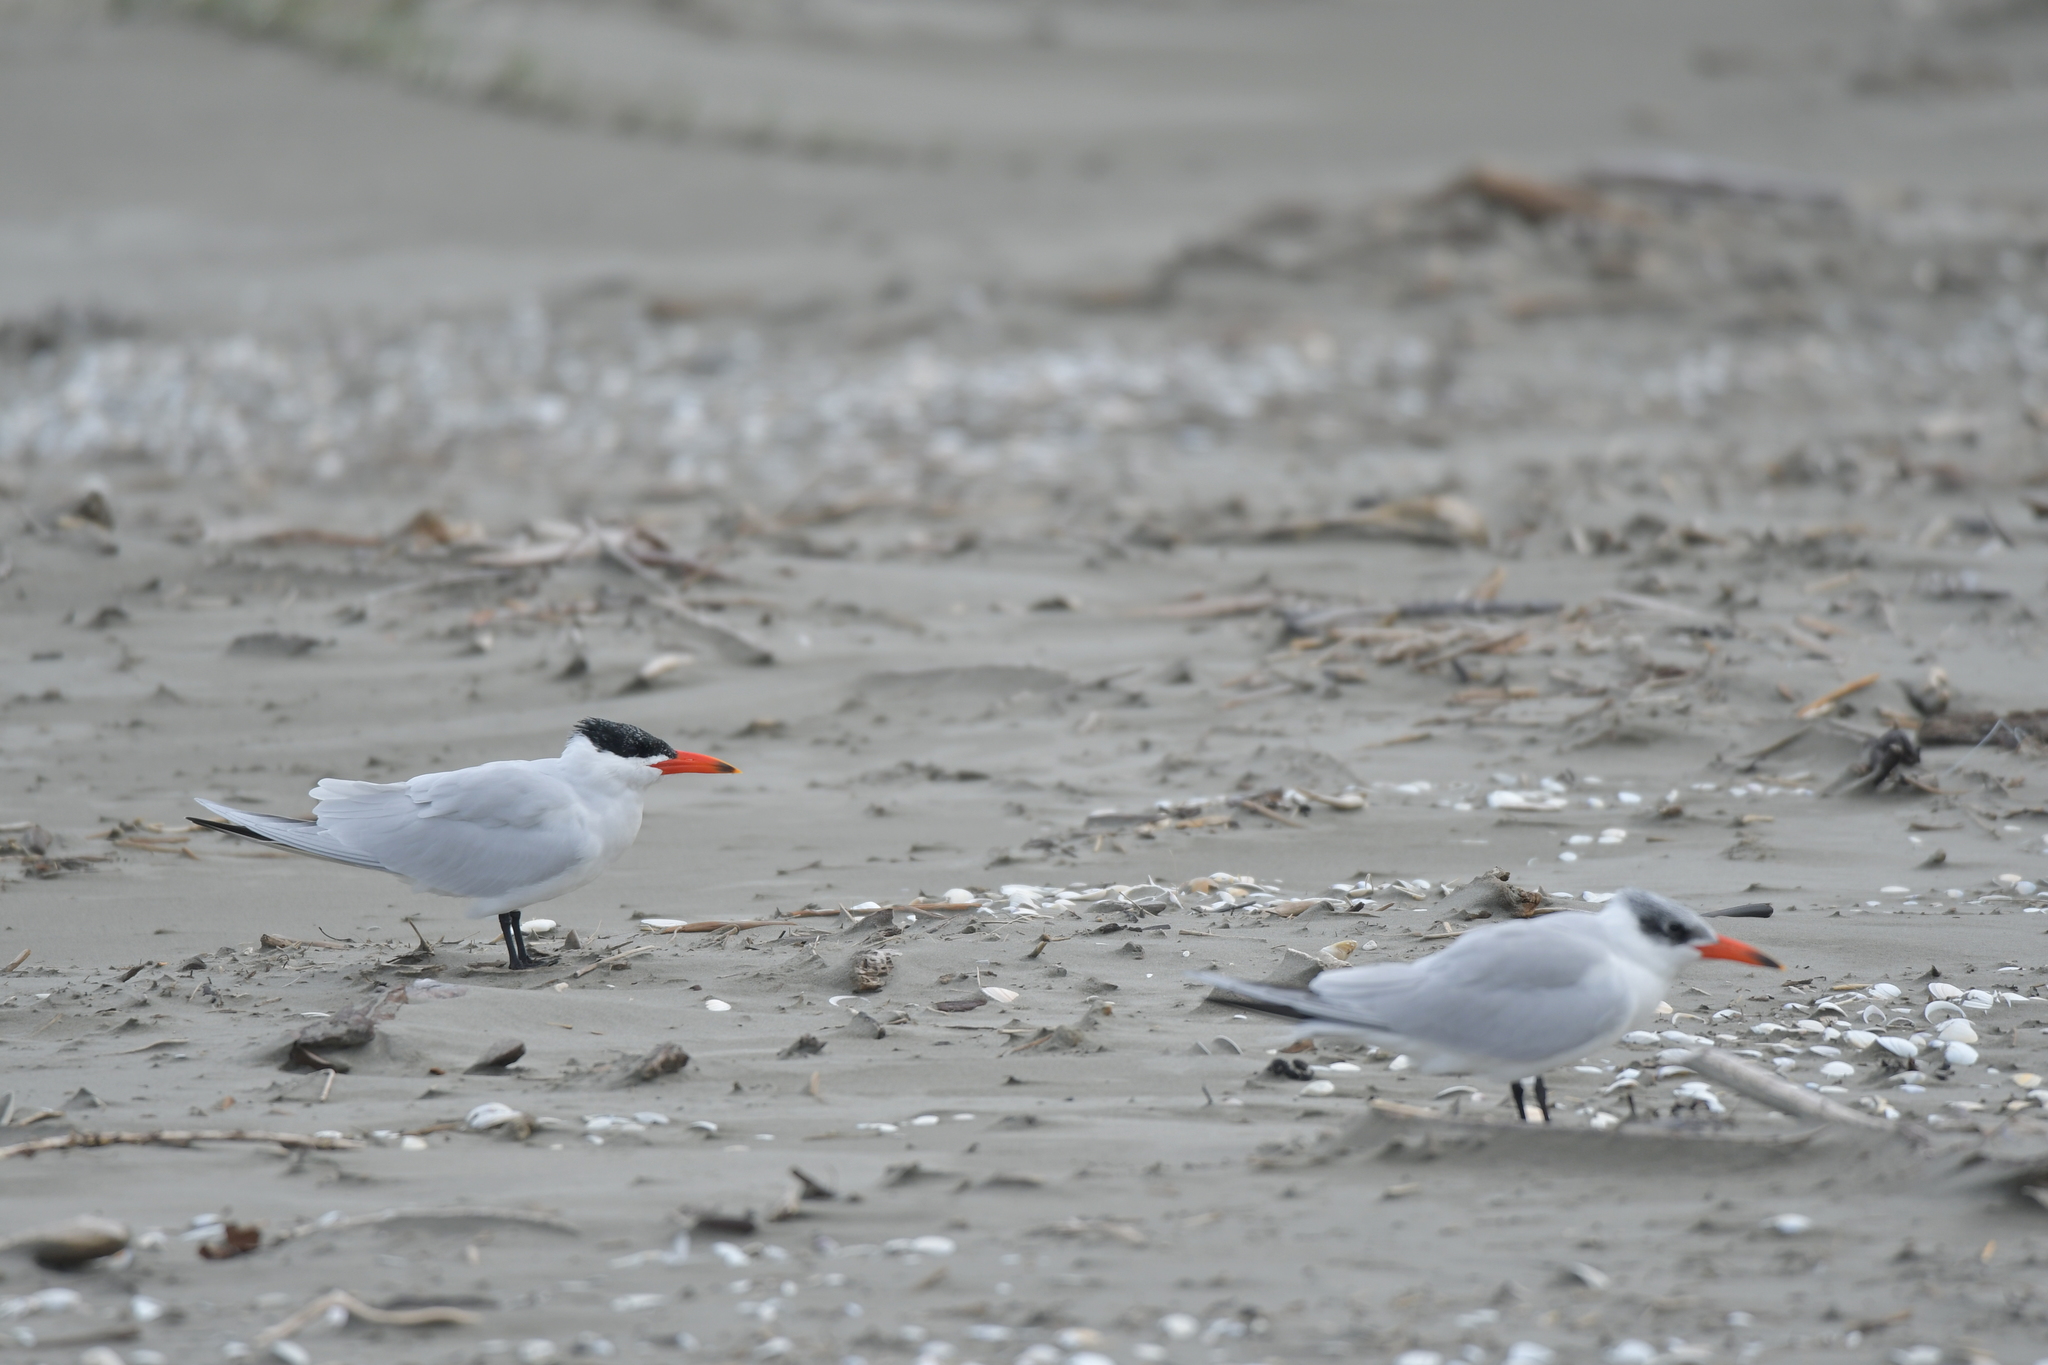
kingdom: Animalia
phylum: Chordata
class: Aves
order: Charadriiformes
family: Laridae
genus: Hydroprogne
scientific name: Hydroprogne caspia
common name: Caspian tern
